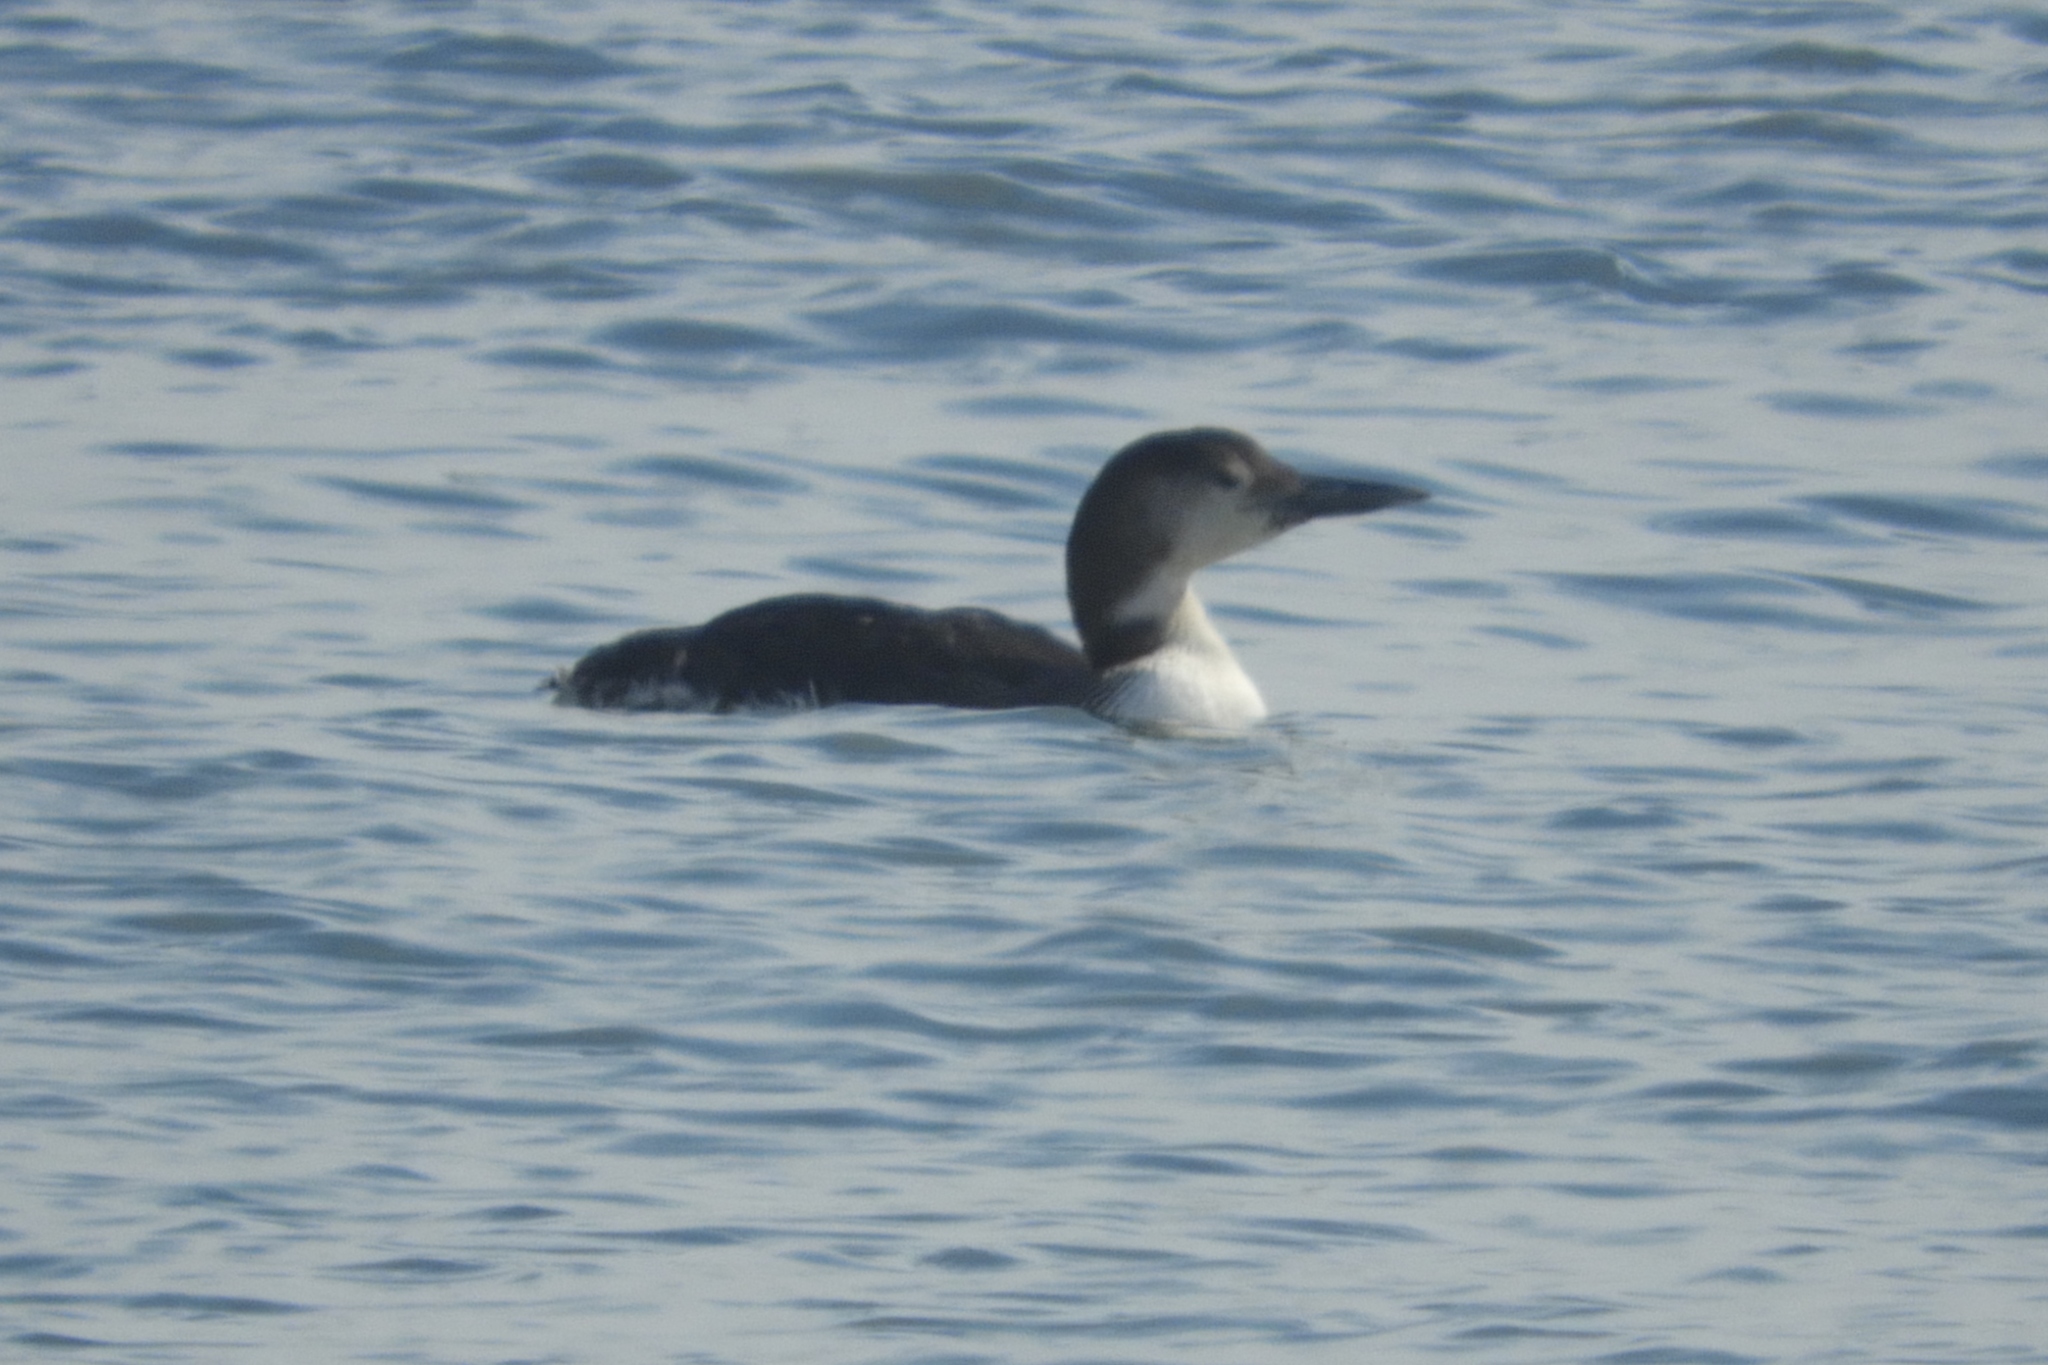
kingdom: Animalia
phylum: Chordata
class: Aves
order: Gaviiformes
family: Gaviidae
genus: Gavia
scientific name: Gavia immer
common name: Common loon
